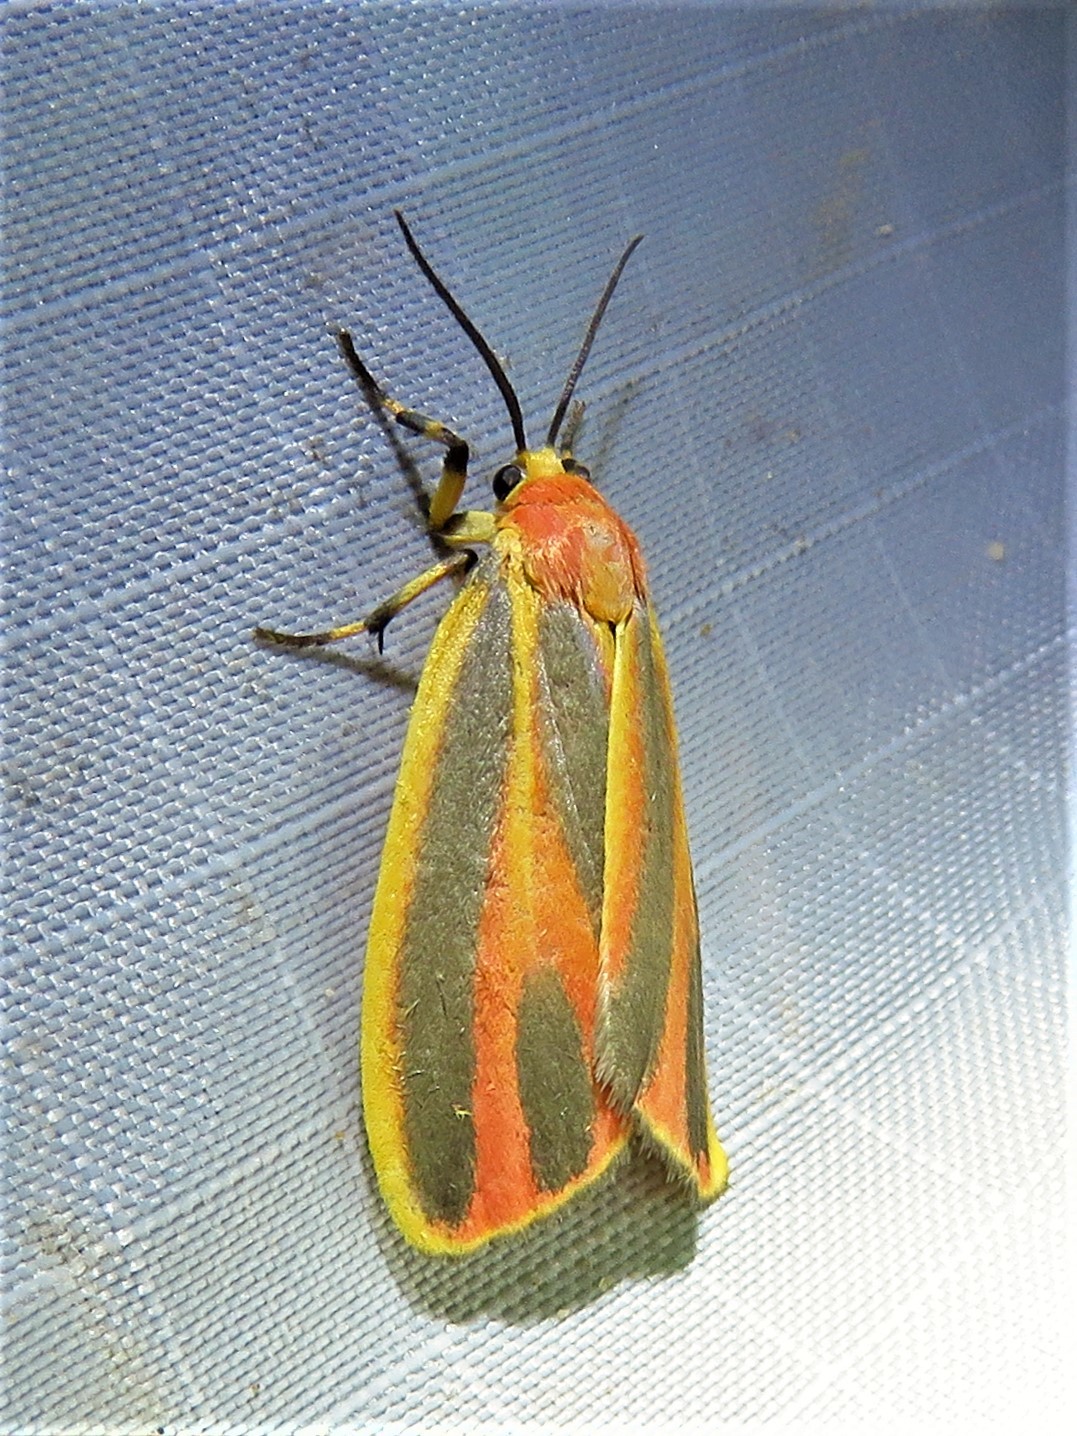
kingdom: Animalia
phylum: Arthropoda
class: Insecta
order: Lepidoptera
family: Erebidae
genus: Hypoprepia
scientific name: Hypoprepia fucosa
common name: Painted lichen moth
